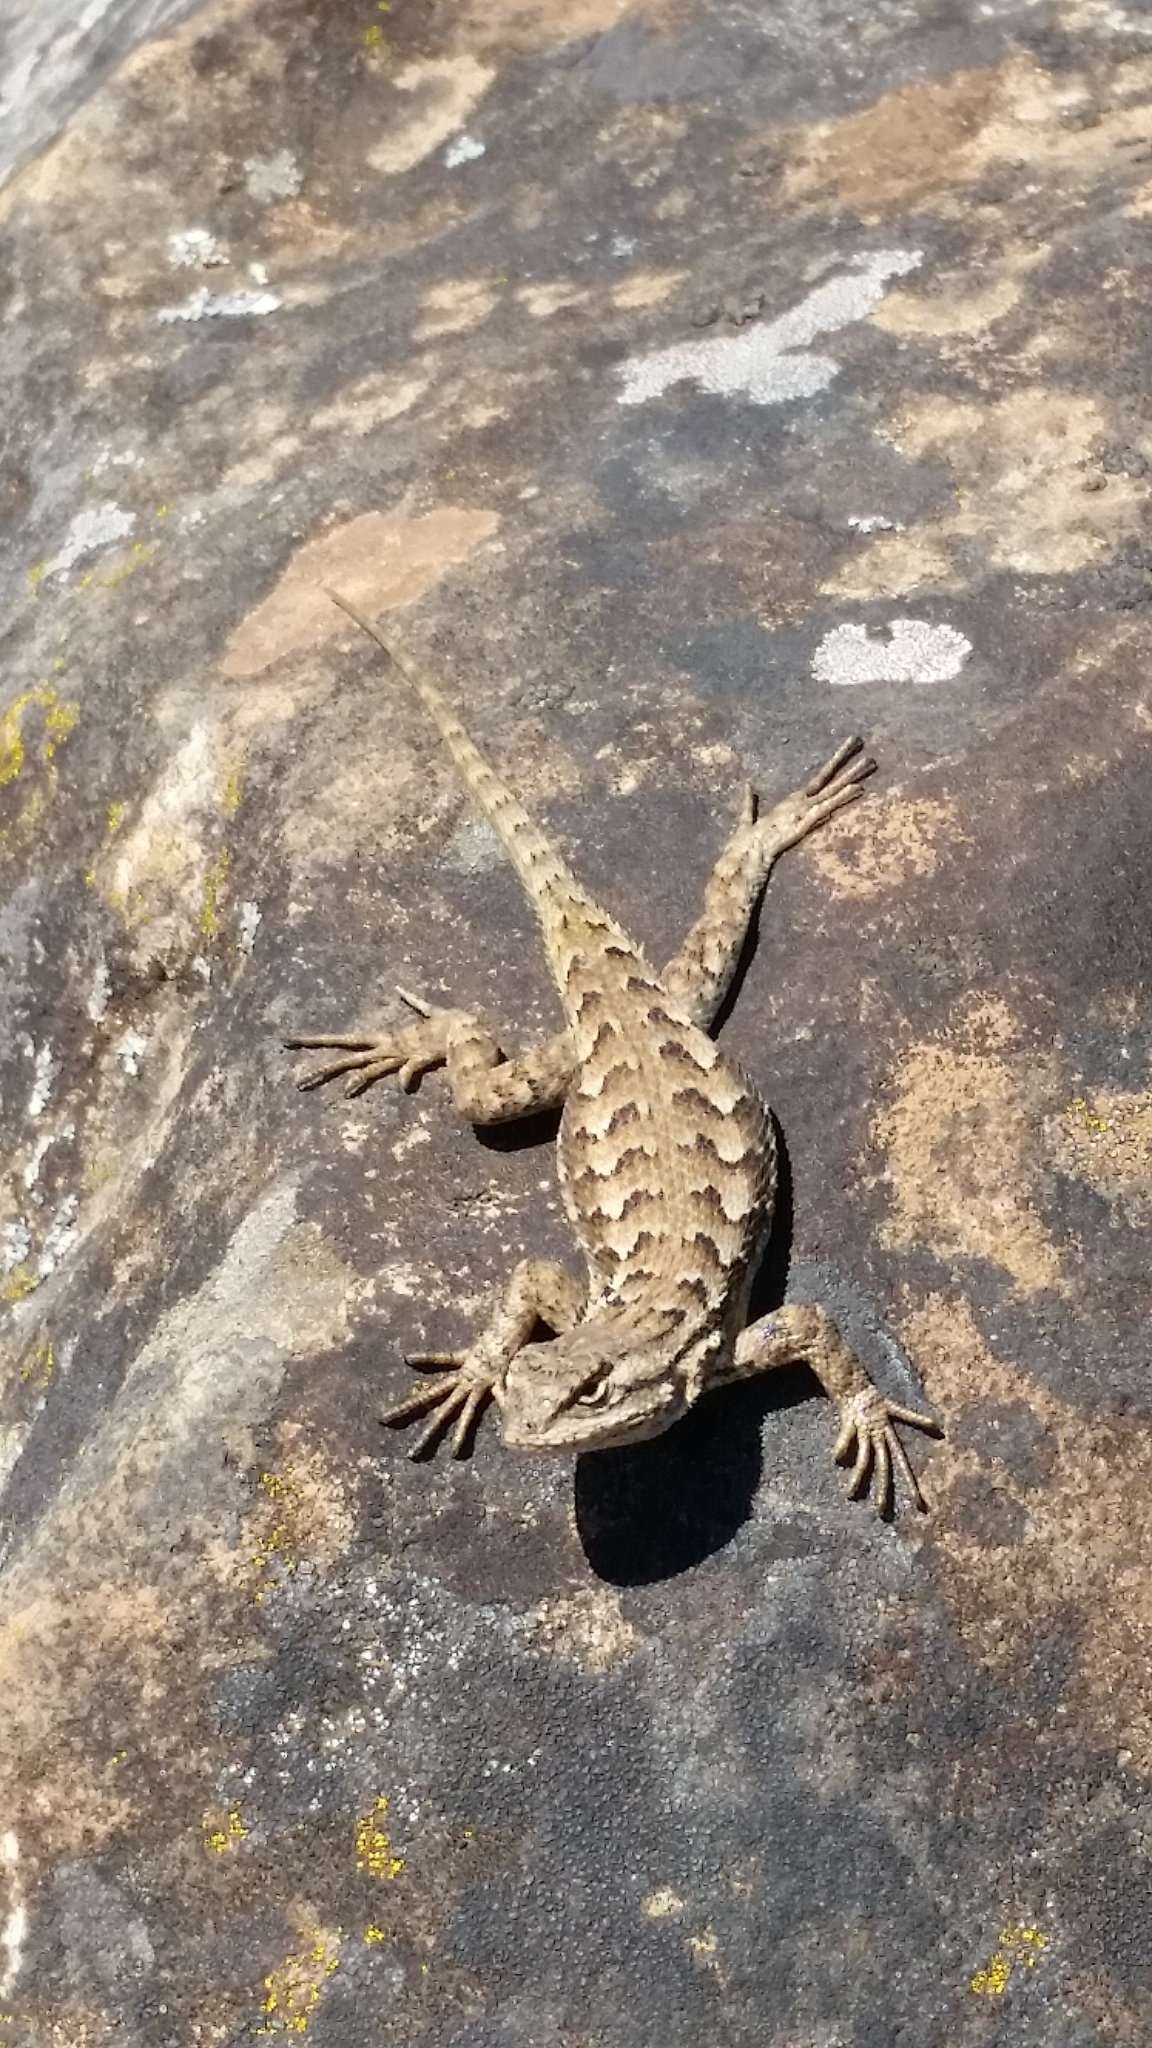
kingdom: Animalia
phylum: Chordata
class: Squamata
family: Phrynosomatidae
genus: Sceloporus
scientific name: Sceloporus occidentalis
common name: Western fence lizard
